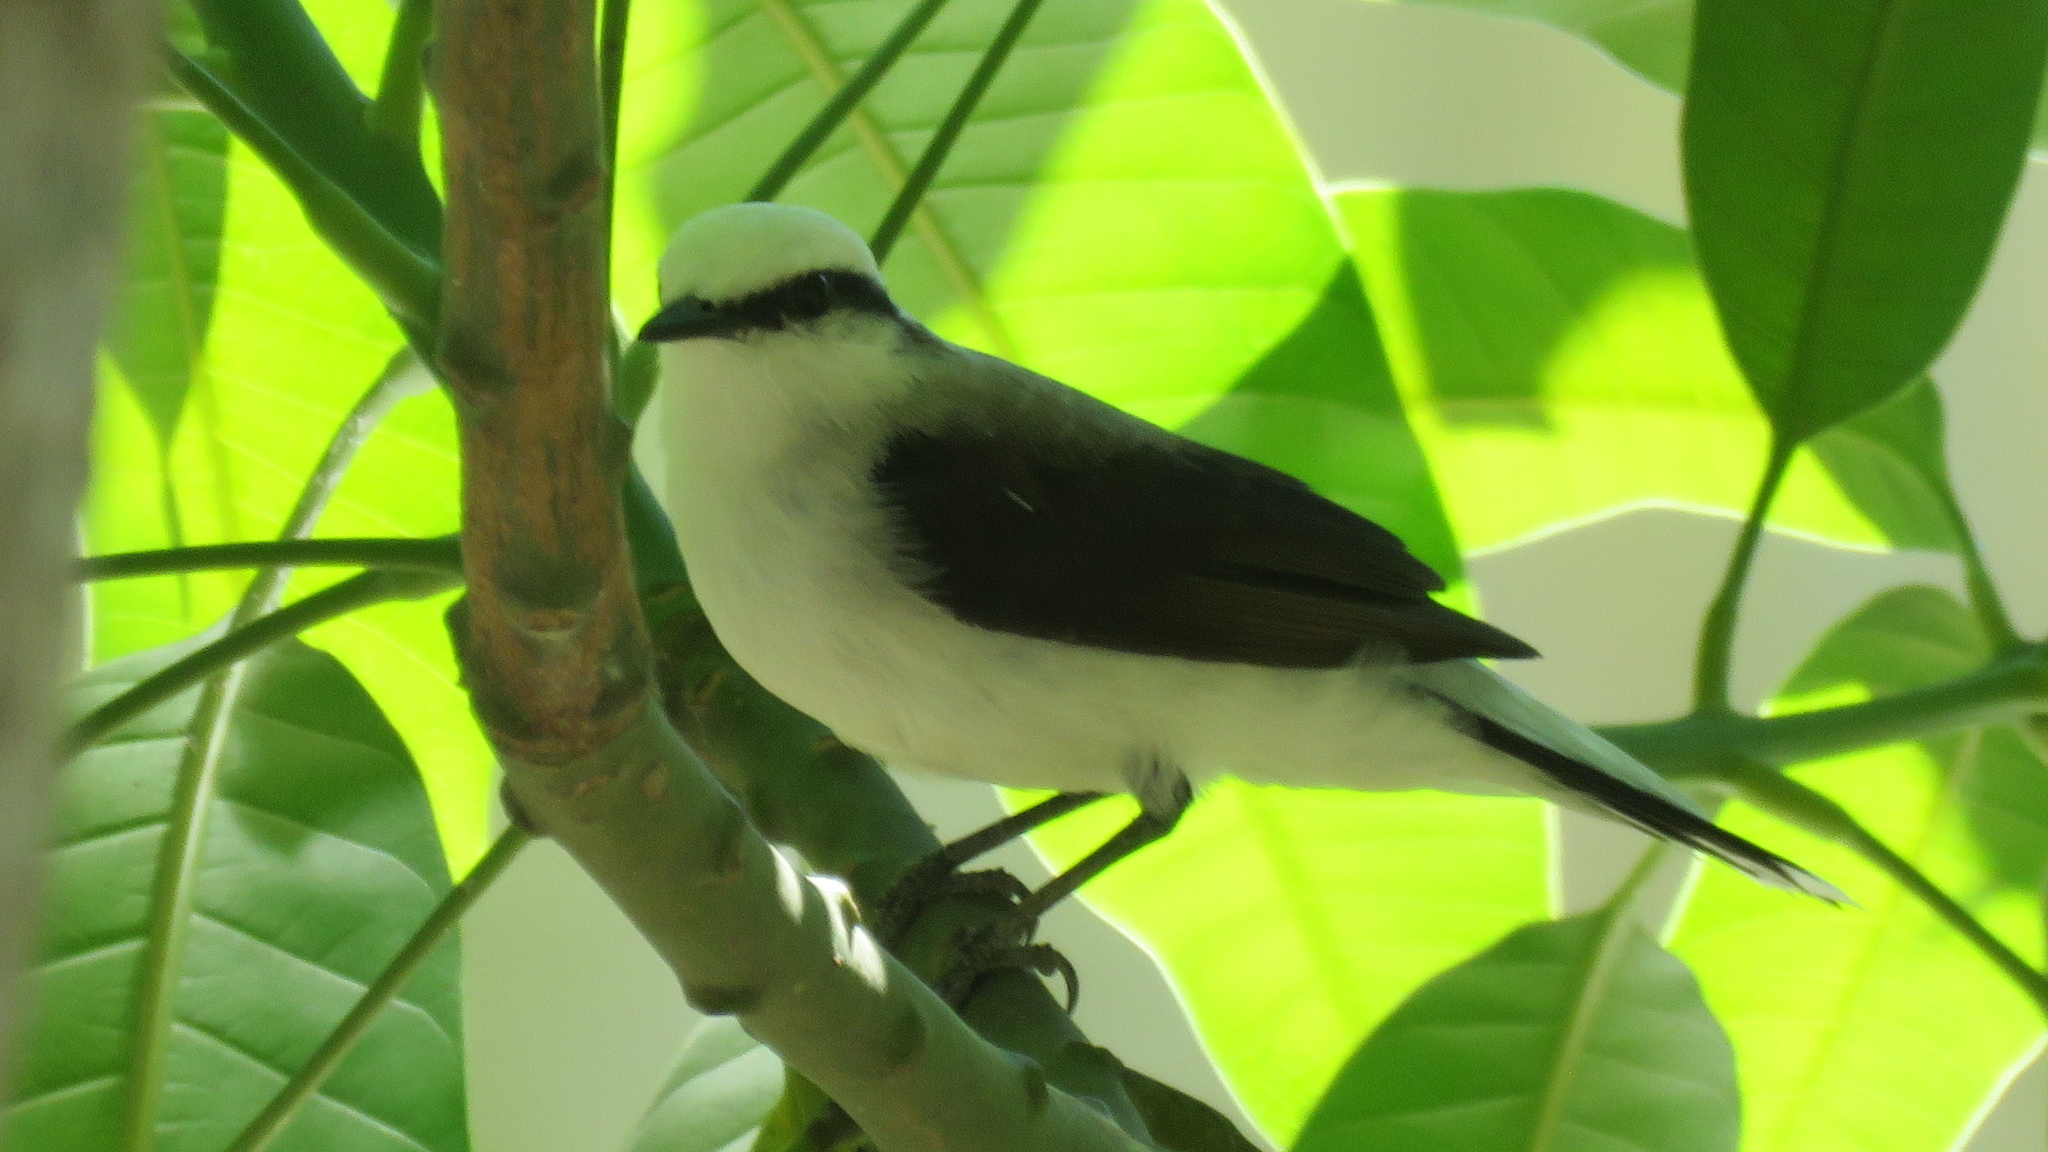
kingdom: Animalia
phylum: Chordata
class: Aves
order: Passeriformes
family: Tyrannidae
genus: Fluvicola
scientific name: Fluvicola nengeta
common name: Masked water tyrant
